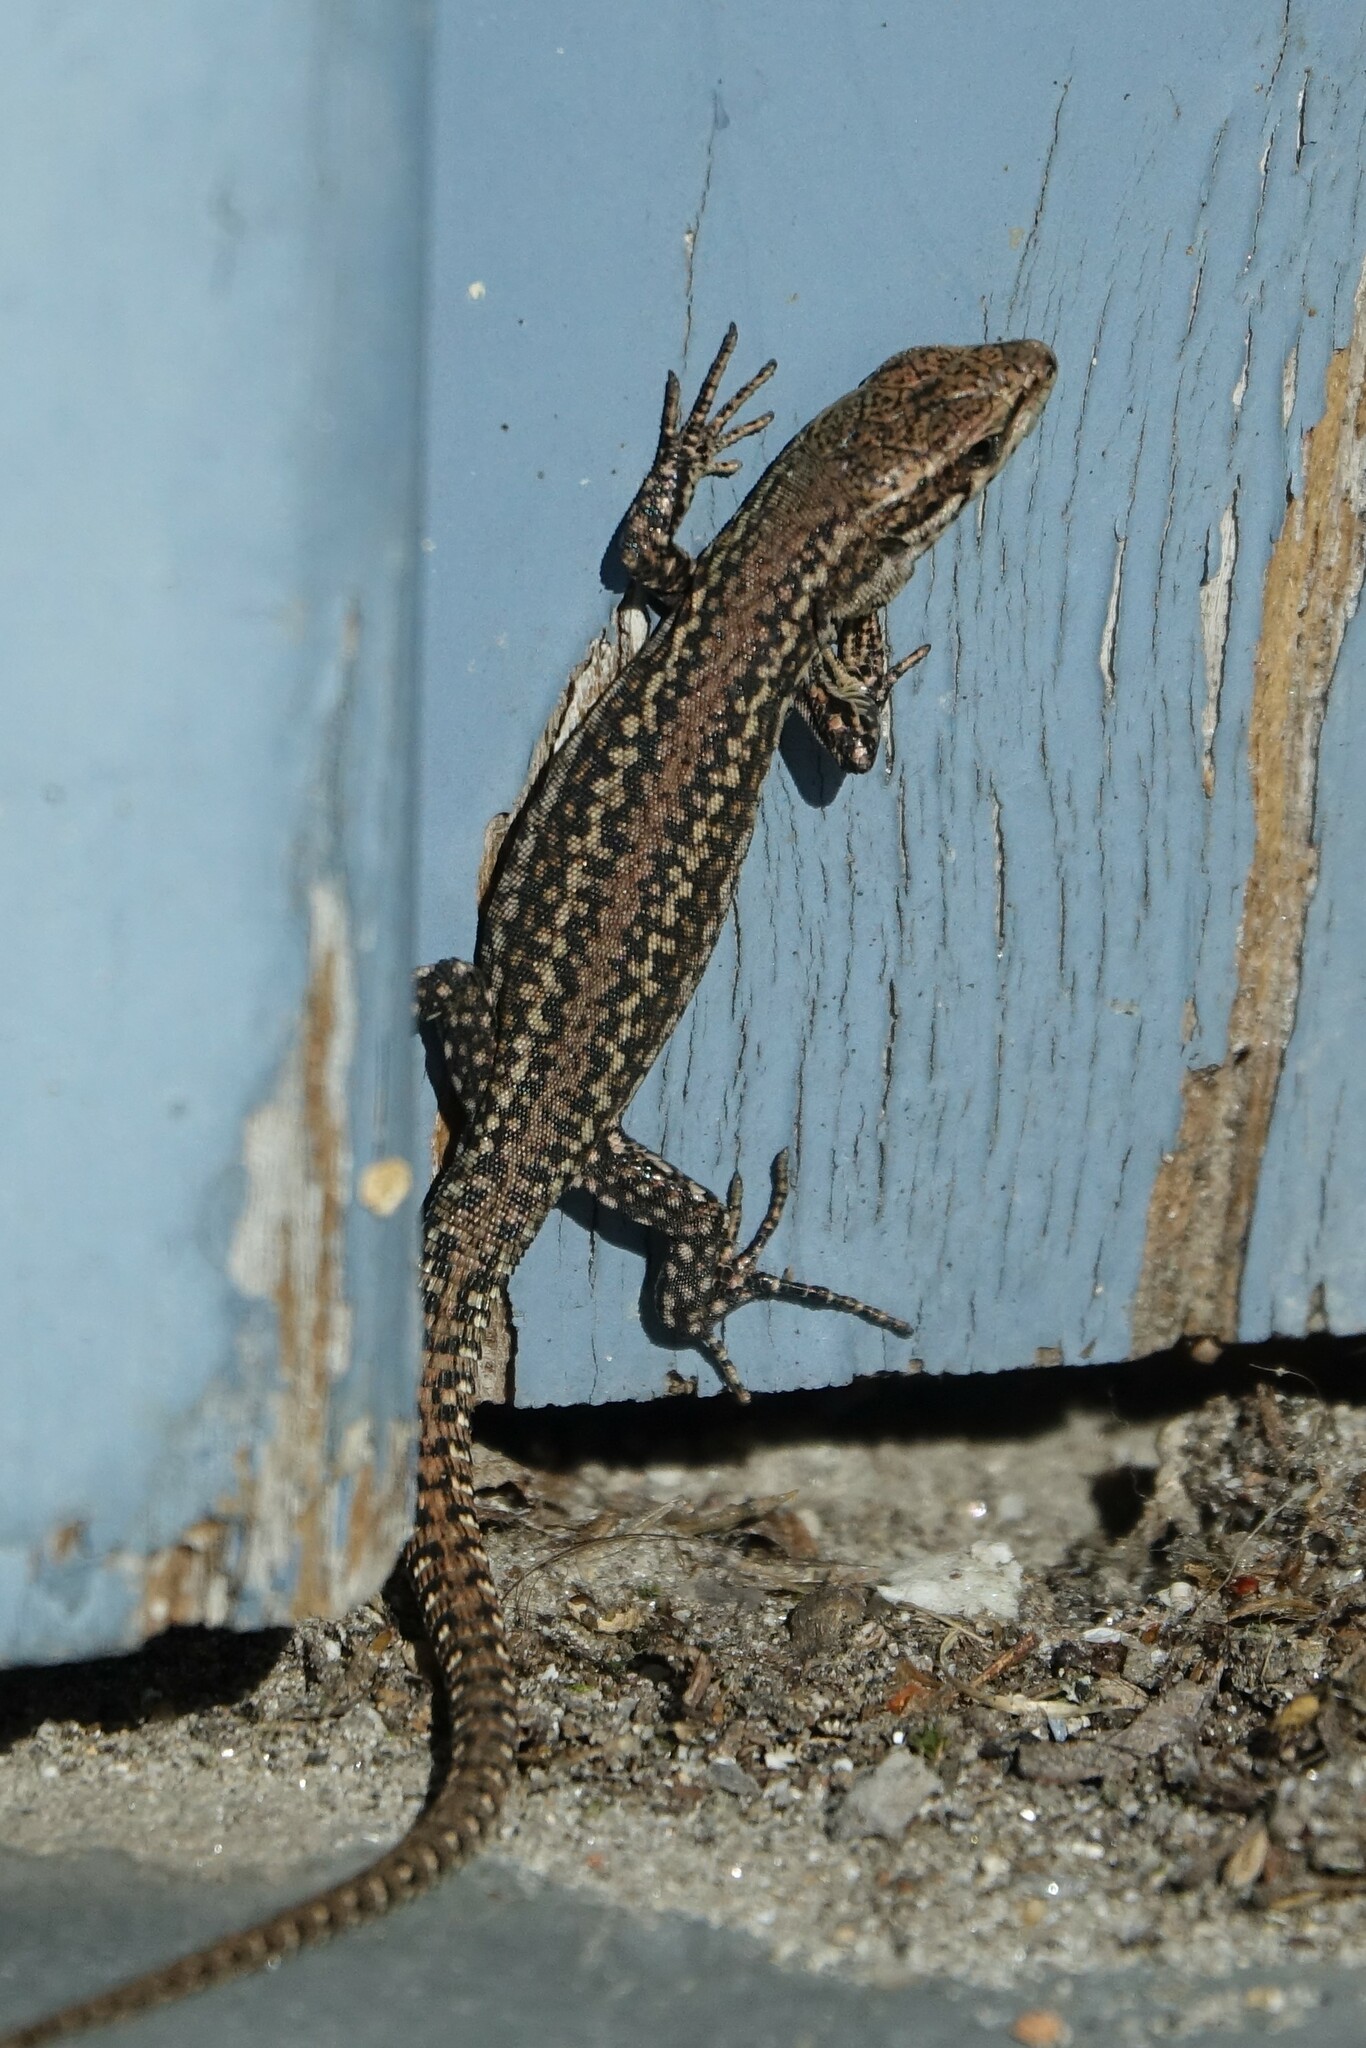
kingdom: Animalia
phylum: Chordata
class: Squamata
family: Lacertidae
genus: Podarcis
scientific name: Podarcis
